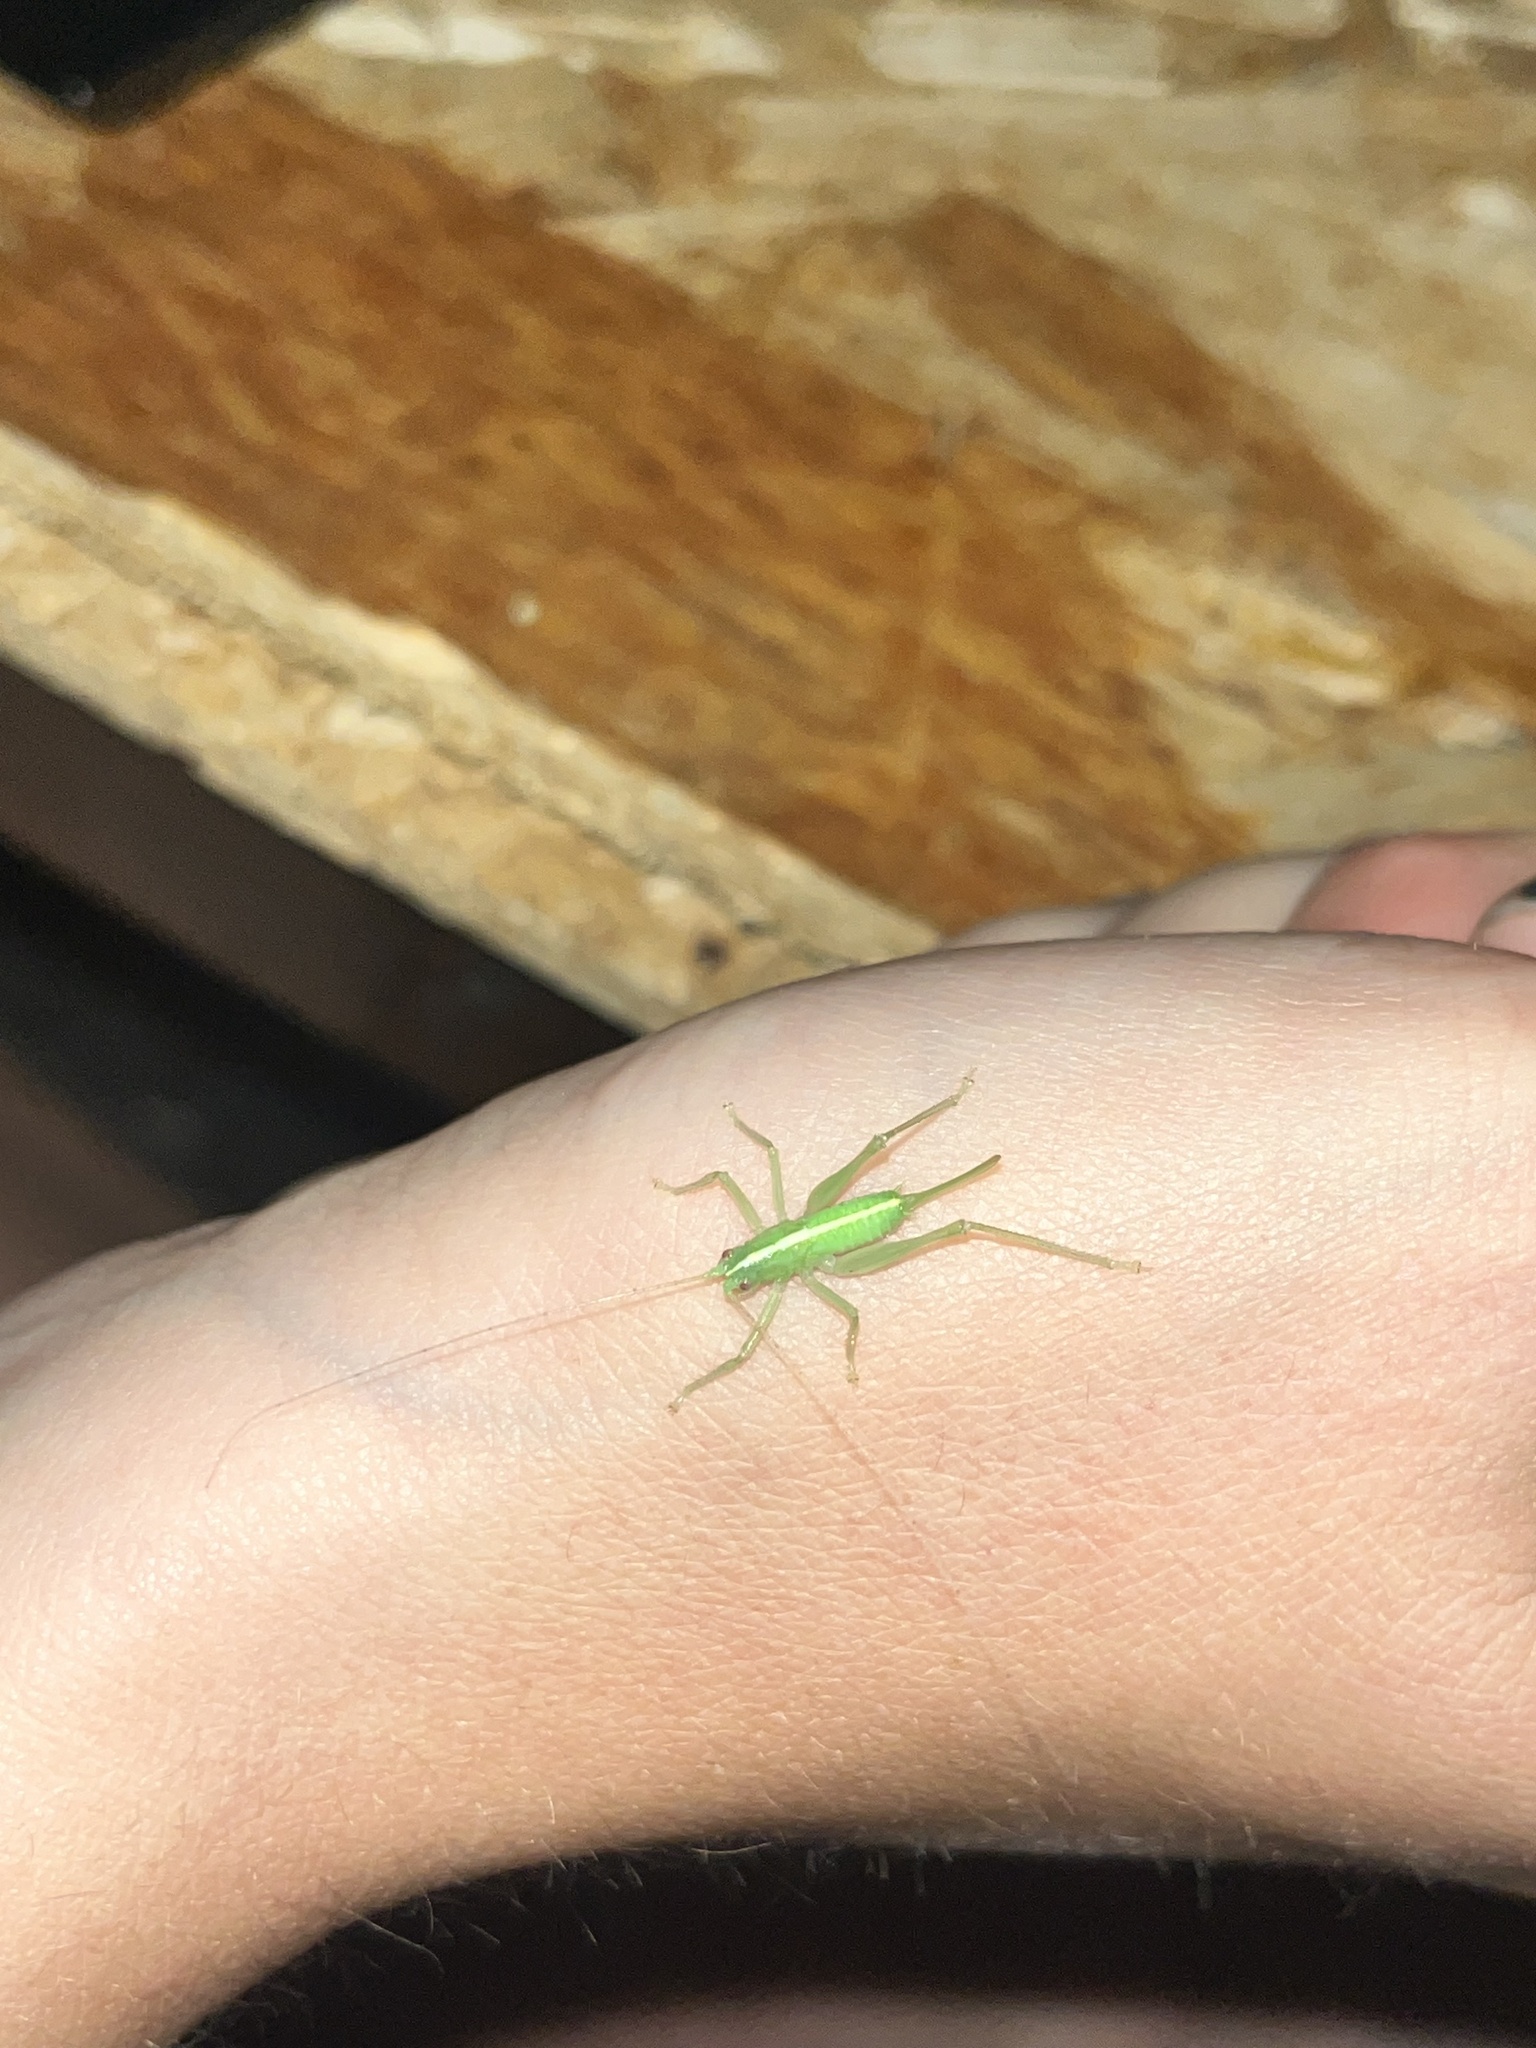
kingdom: Animalia
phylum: Arthropoda
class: Insecta
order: Orthoptera
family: Tettigoniidae
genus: Meconema
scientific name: Meconema meridionale
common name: Southern oak bush-cricket
